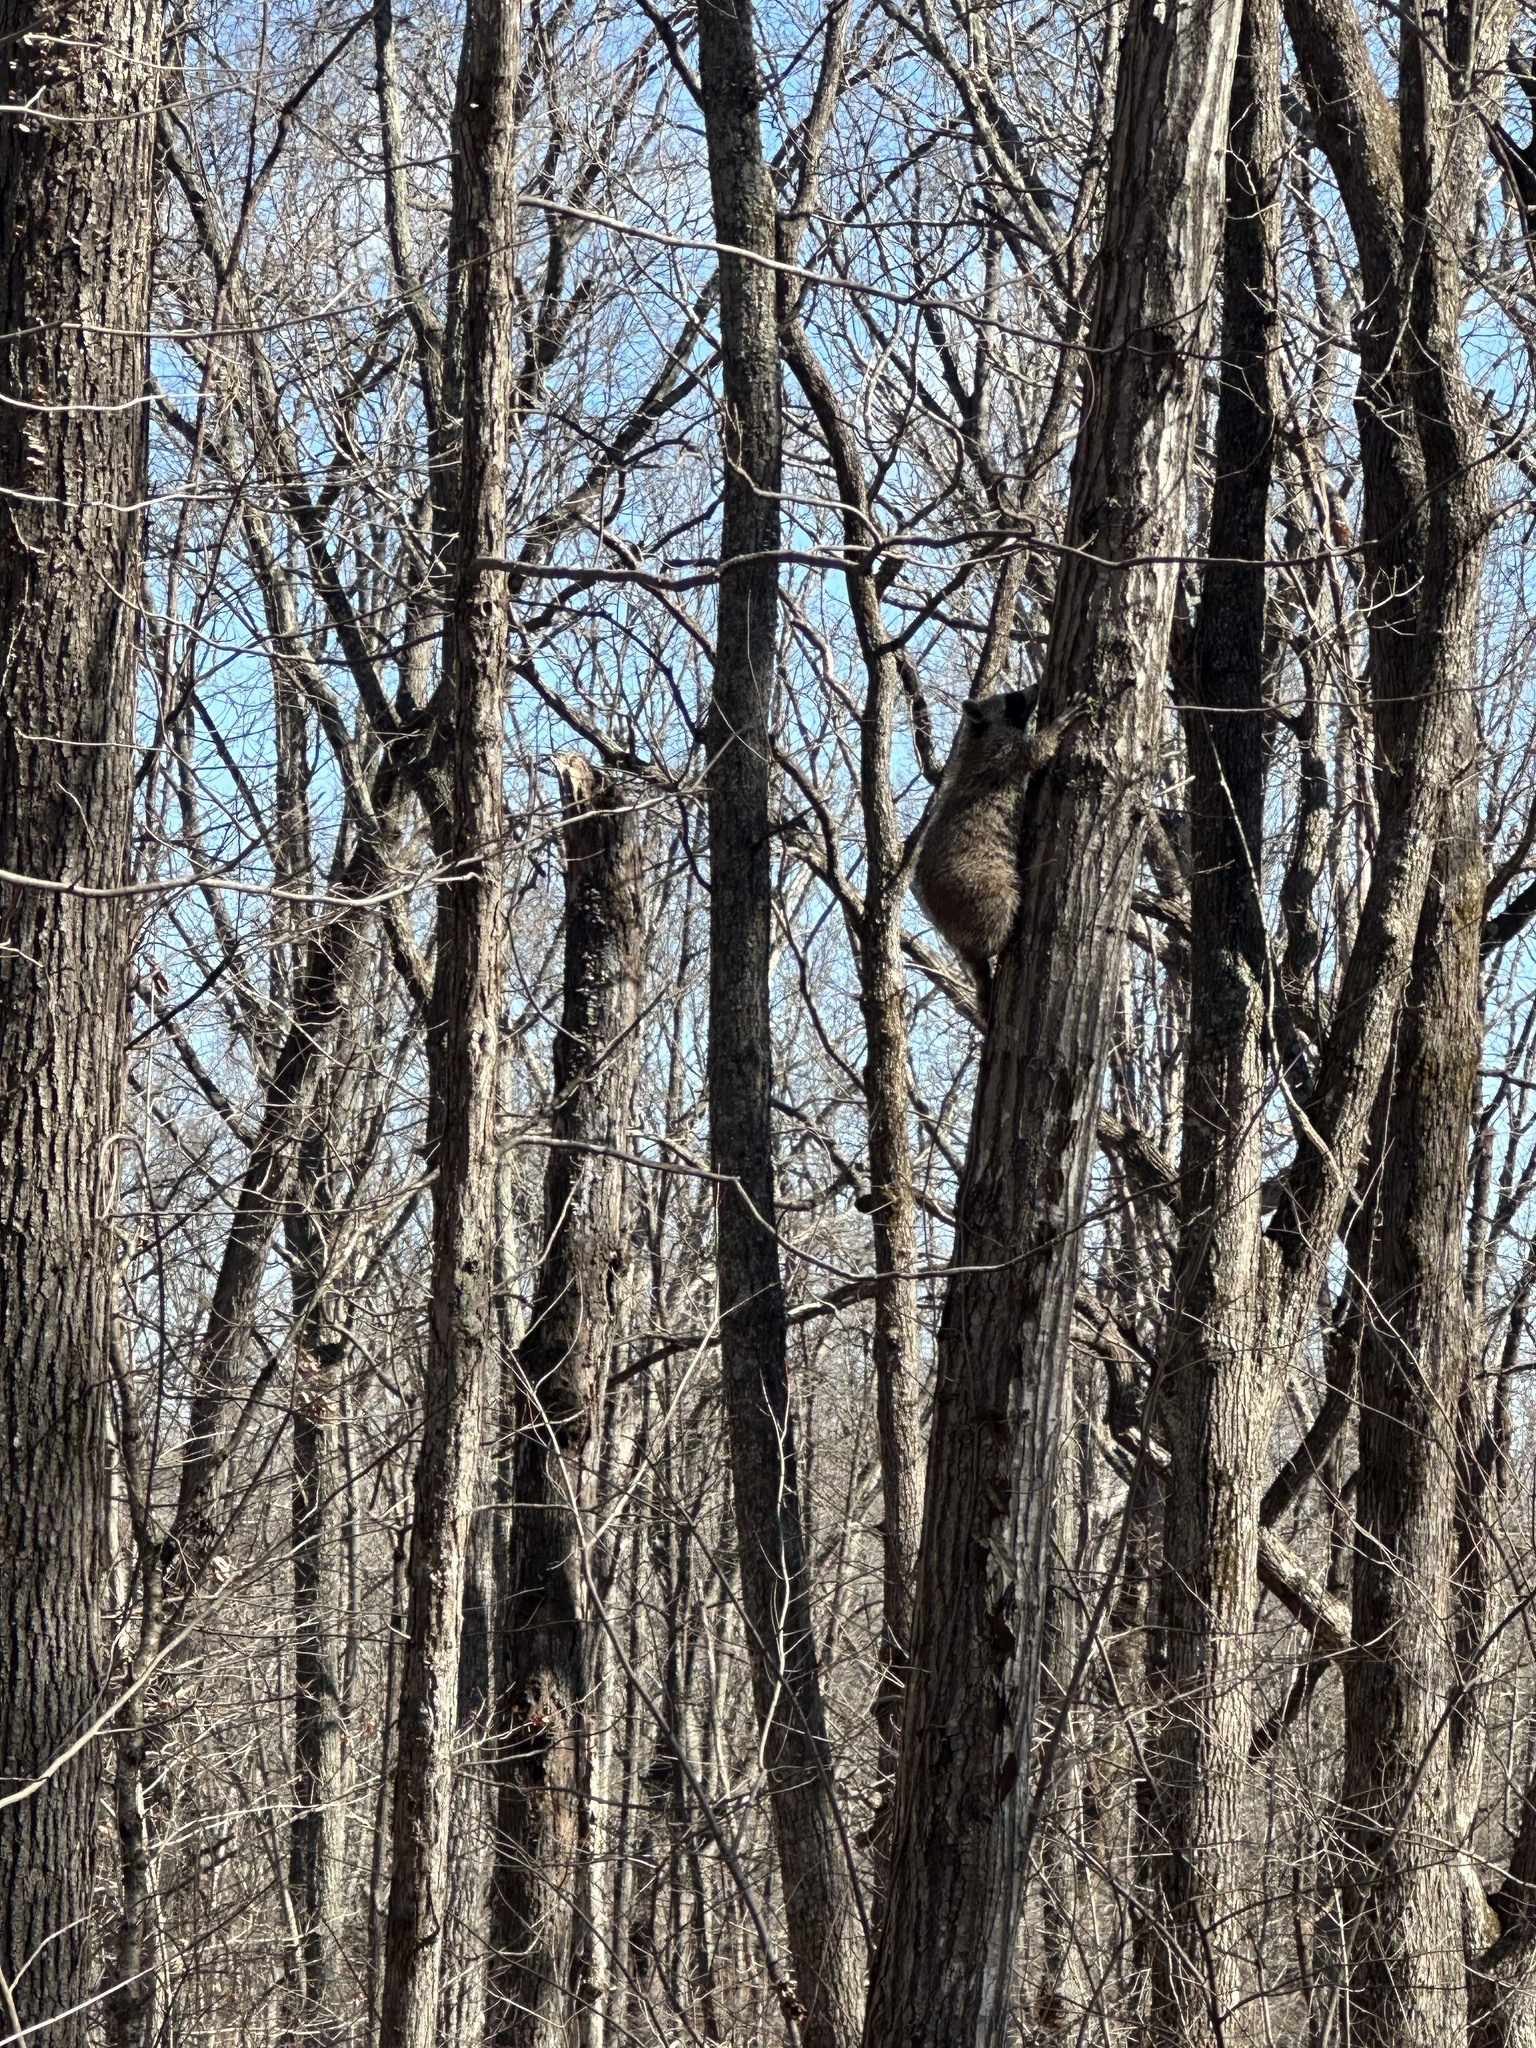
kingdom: Animalia
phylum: Chordata
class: Mammalia
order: Carnivora
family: Procyonidae
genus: Procyon
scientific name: Procyon lotor
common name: Raccoon
